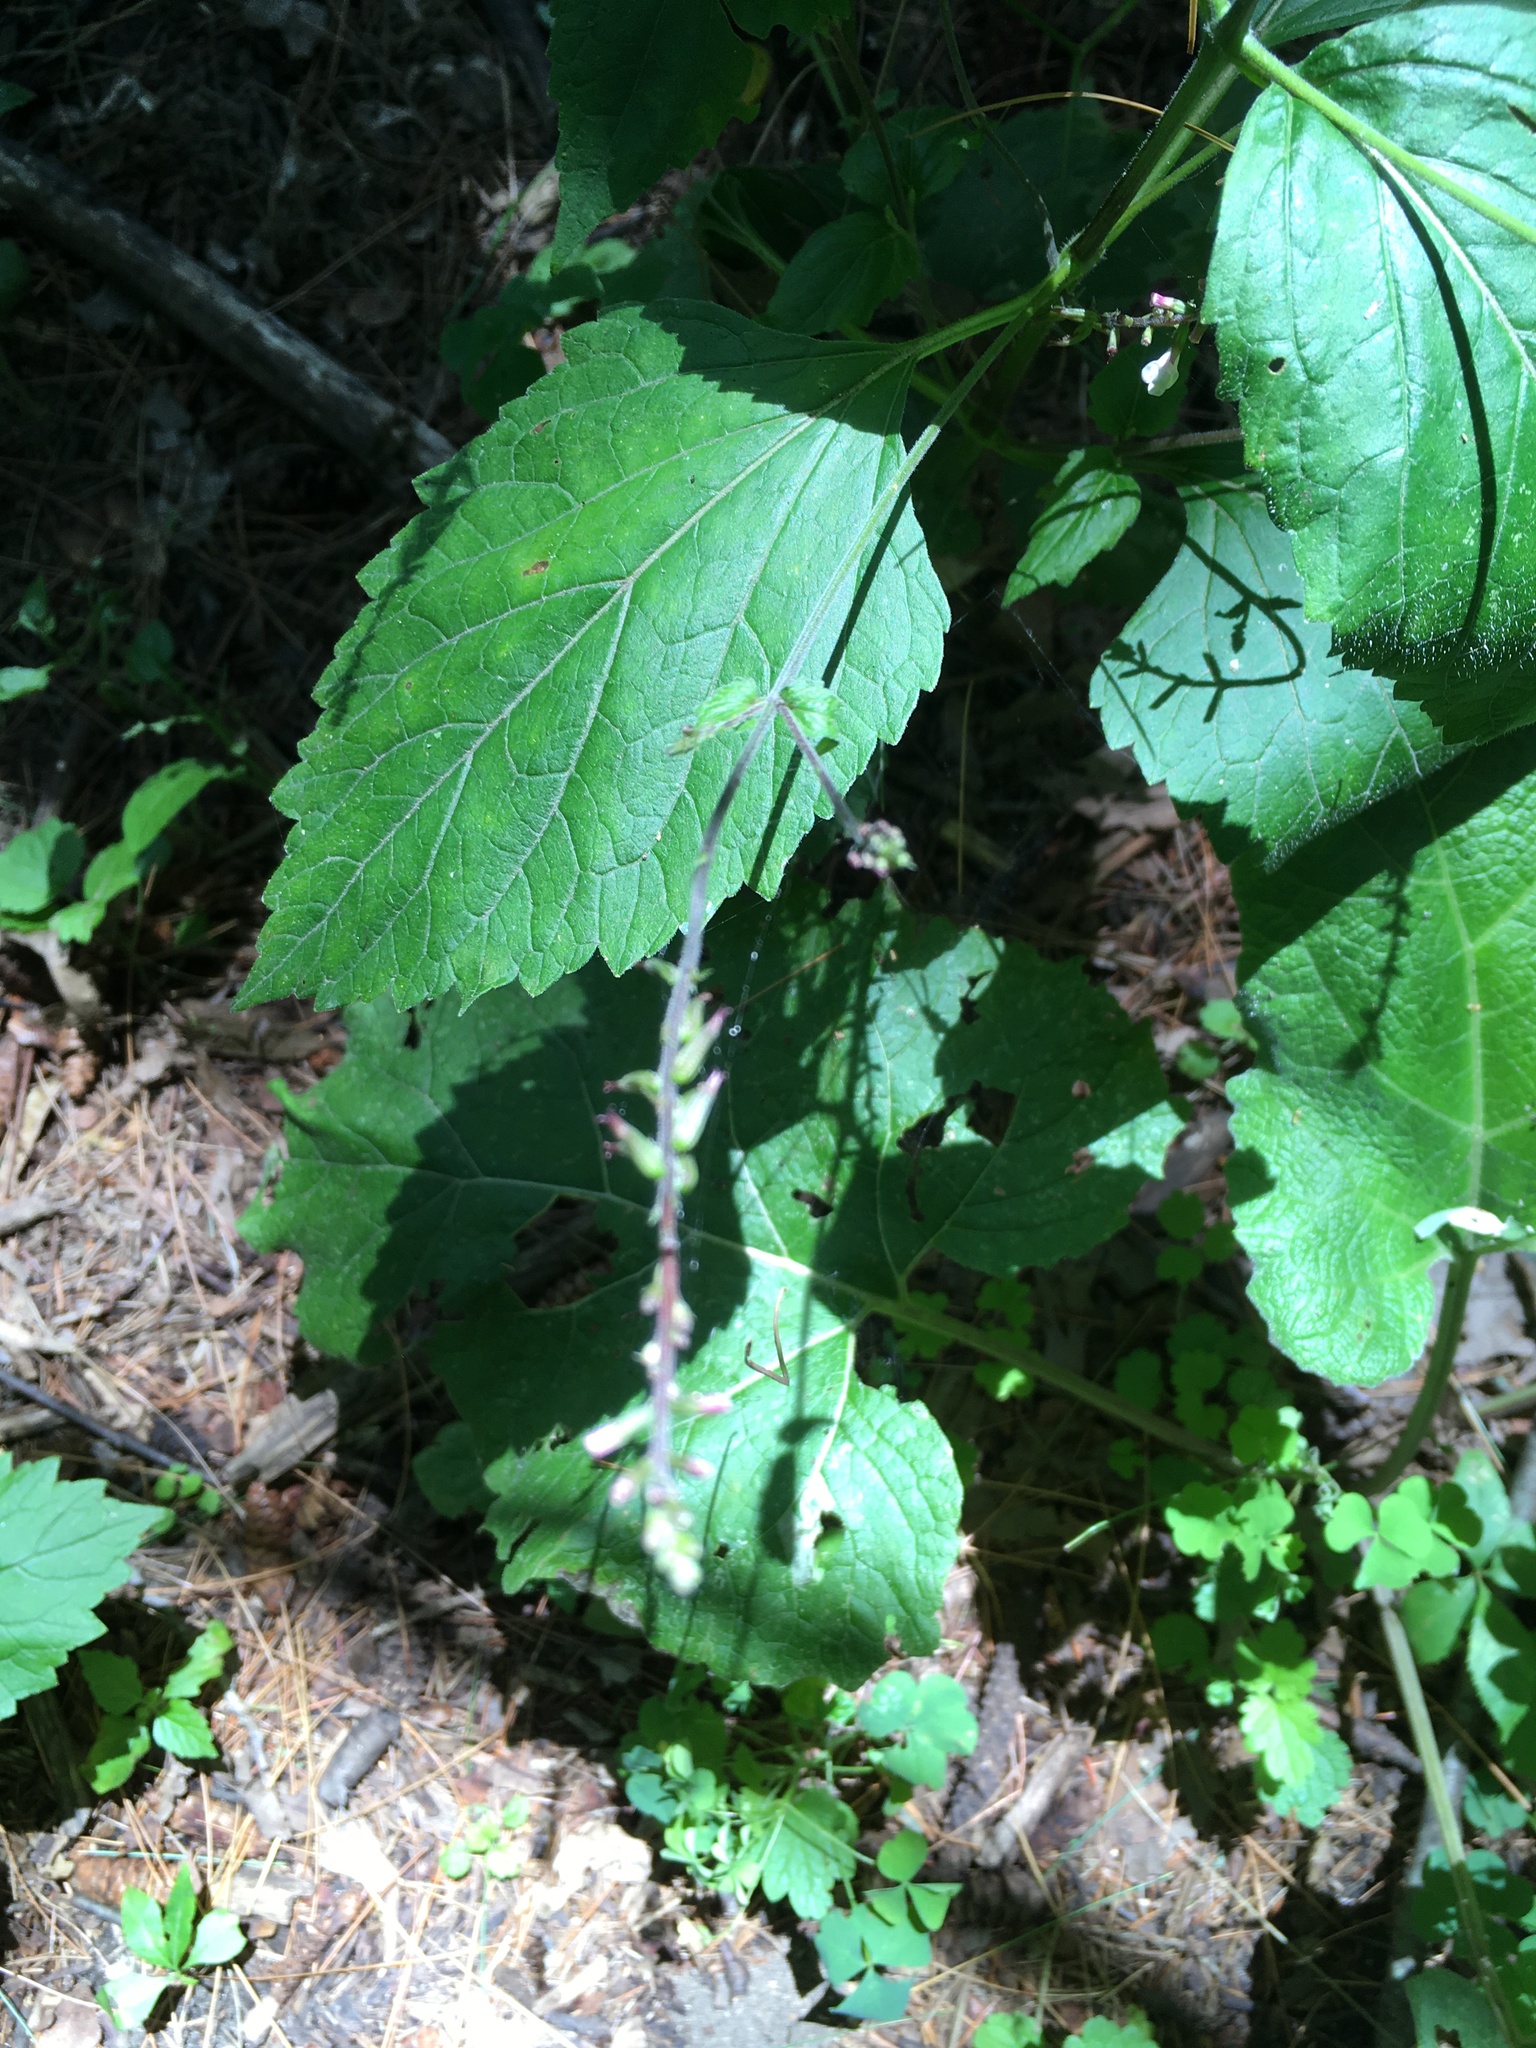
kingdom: Plantae
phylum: Tracheophyta
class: Magnoliopsida
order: Lamiales
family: Phrymaceae
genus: Phryma
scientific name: Phryma leptostachya
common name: American lopseed
